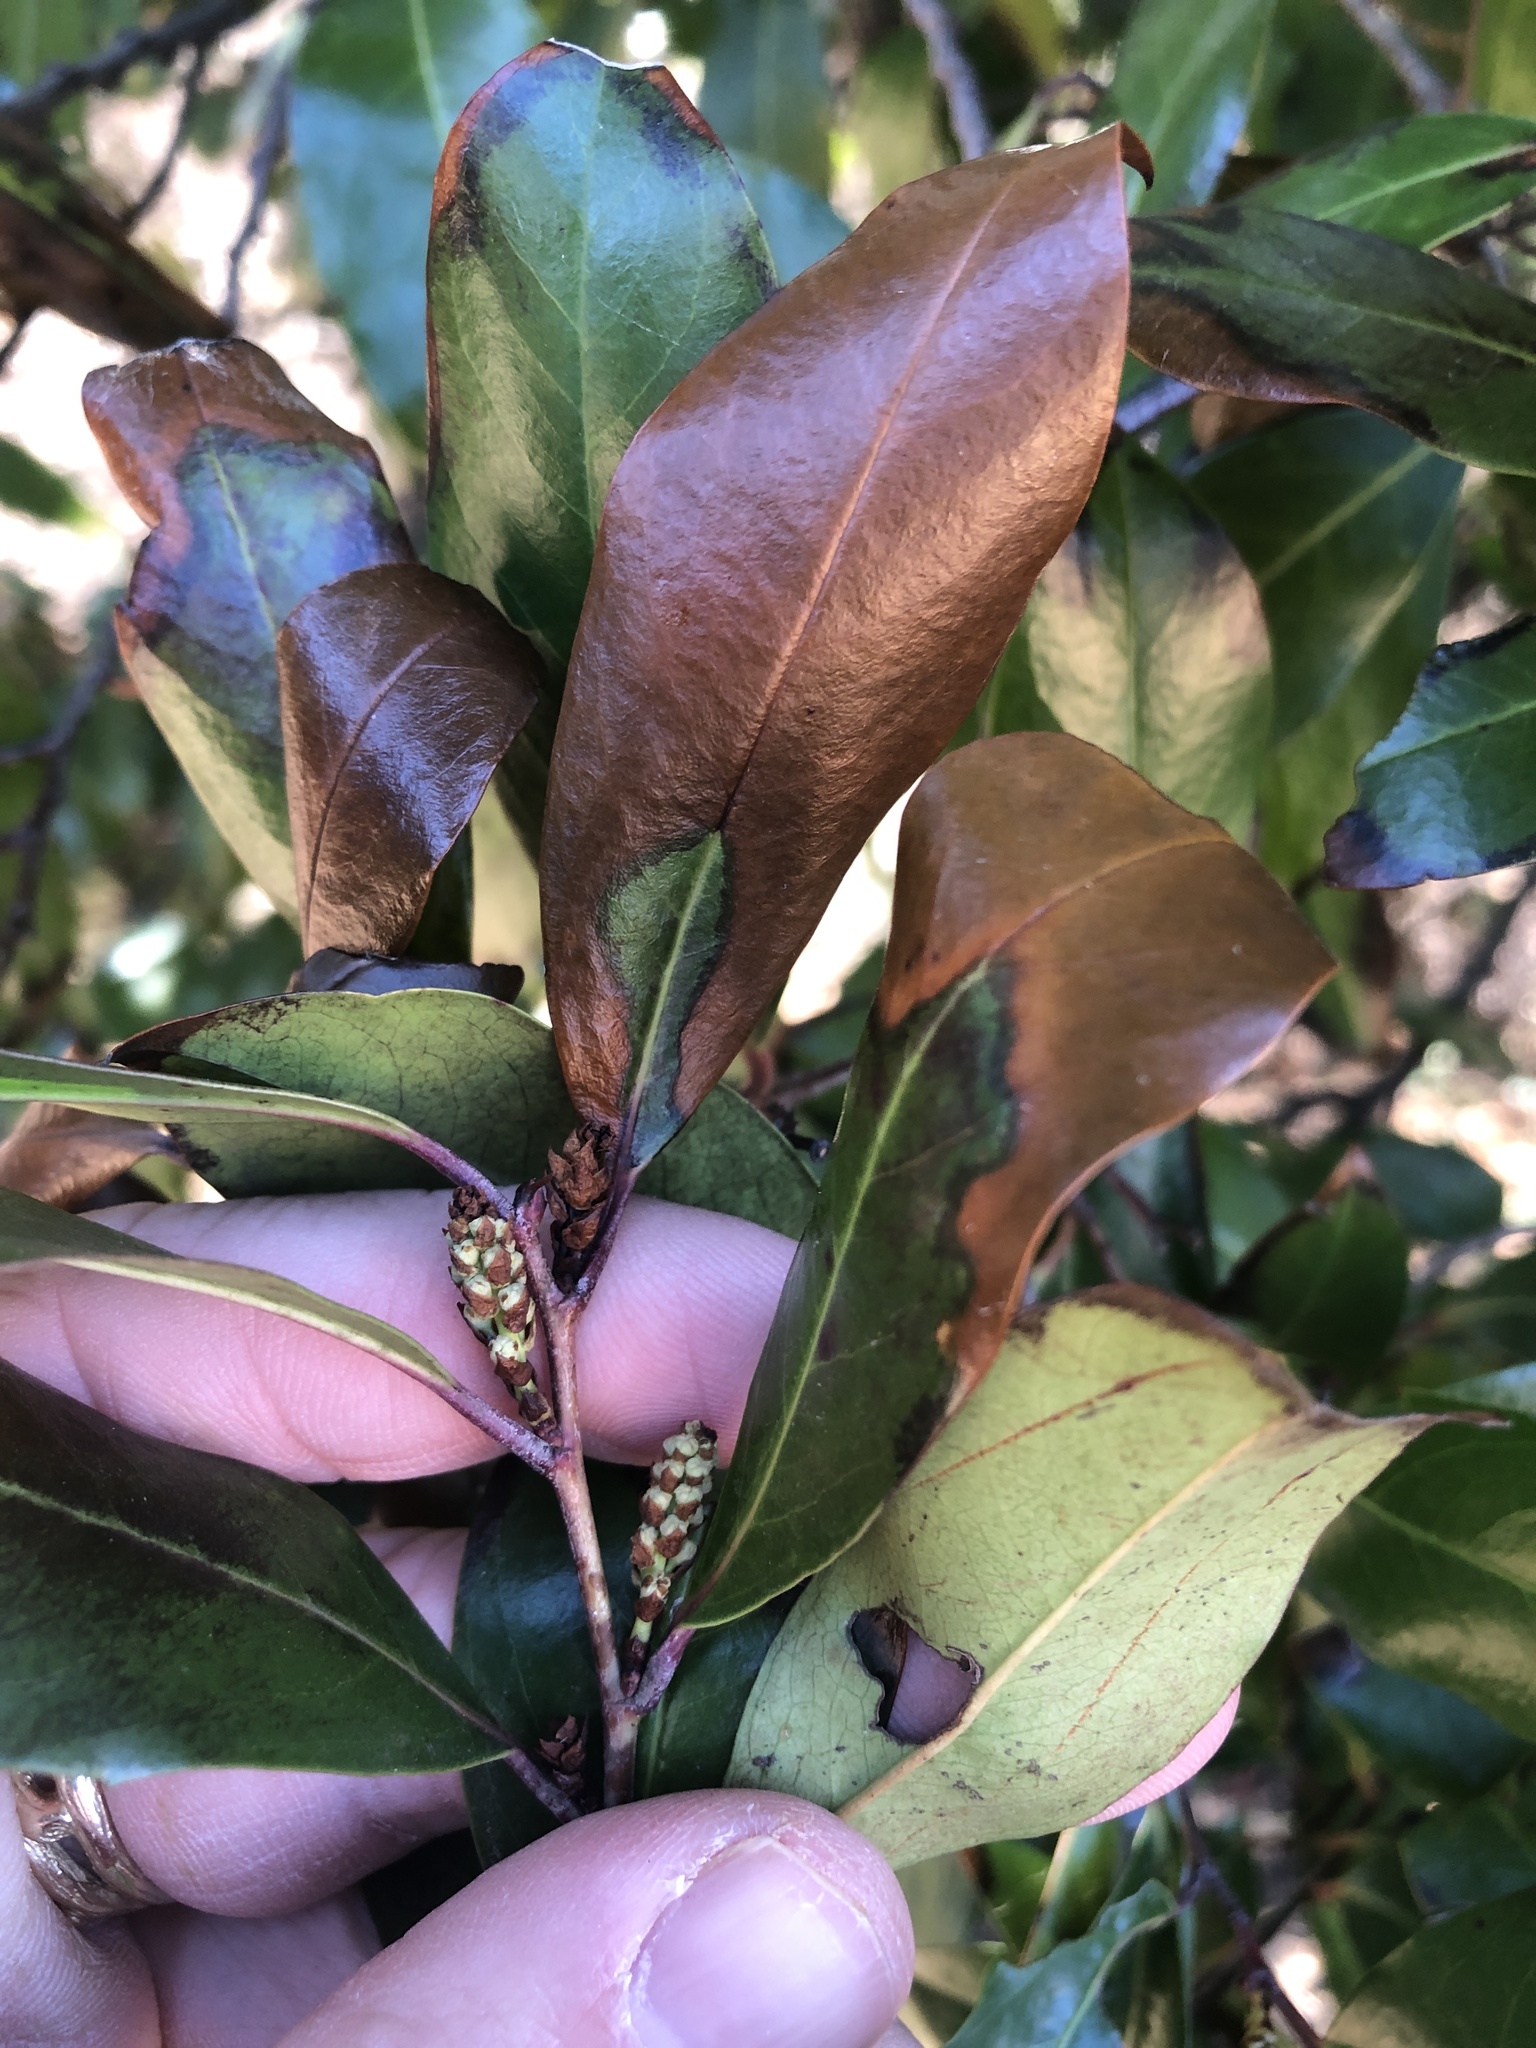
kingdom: Plantae
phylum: Tracheophyta
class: Magnoliopsida
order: Rosales
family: Rosaceae
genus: Prunus
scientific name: Prunus caroliniana
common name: Carolina laurel cherry
